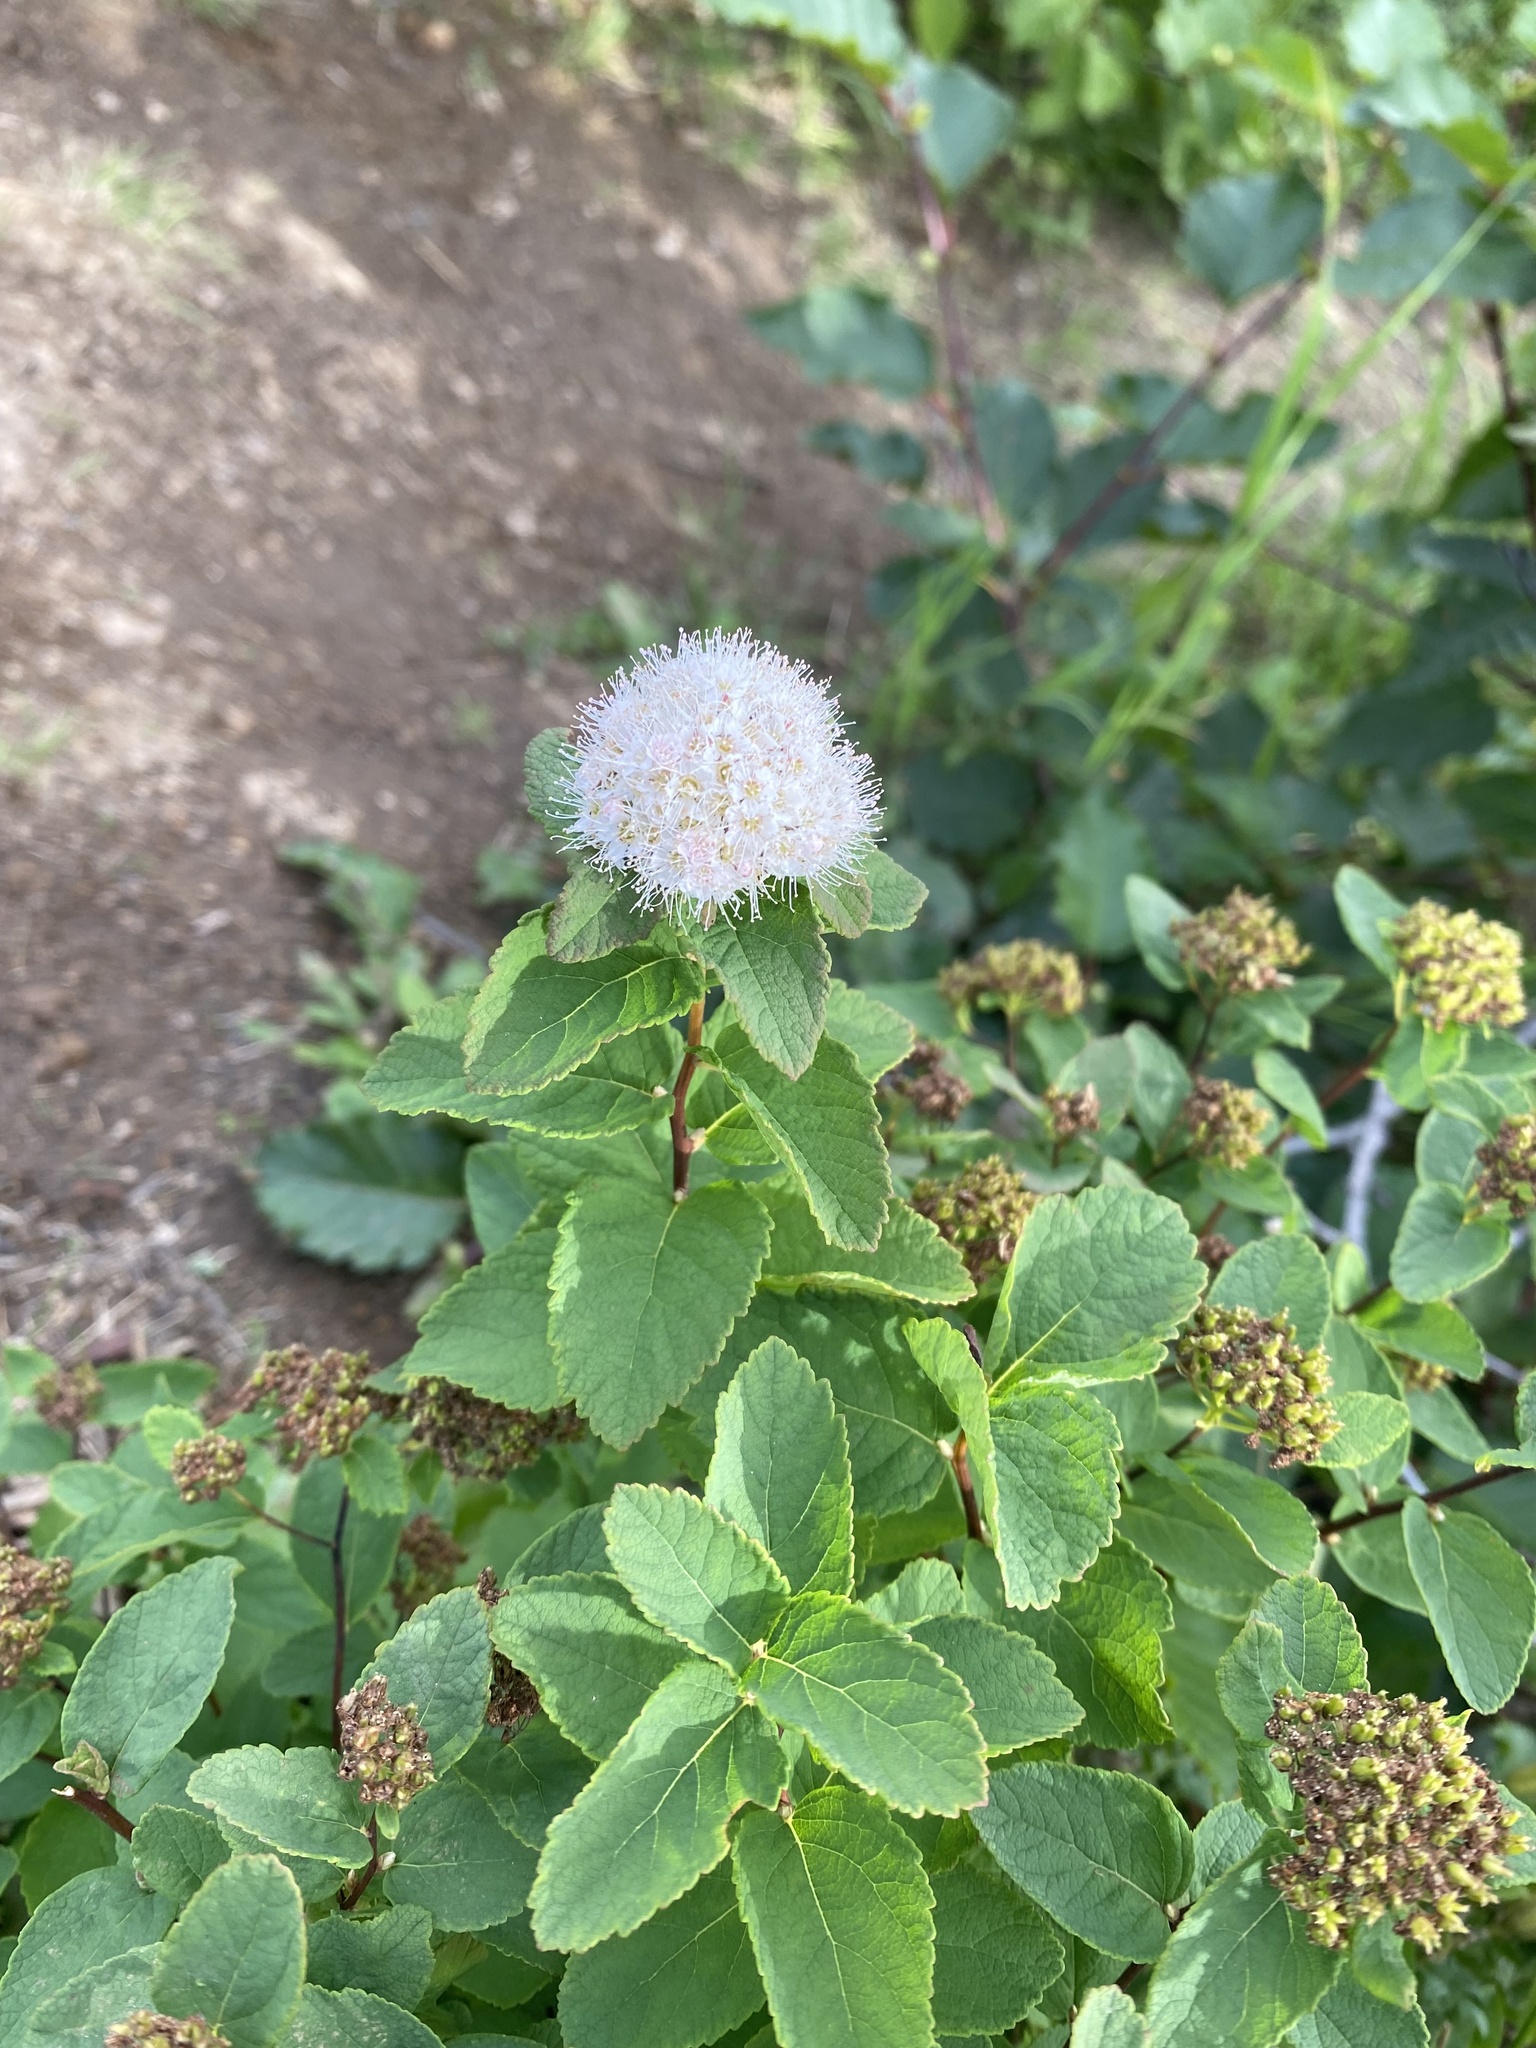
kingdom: Plantae
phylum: Tracheophyta
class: Magnoliopsida
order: Rosales
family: Rosaceae
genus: Spiraea
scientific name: Spiraea betulifolia
